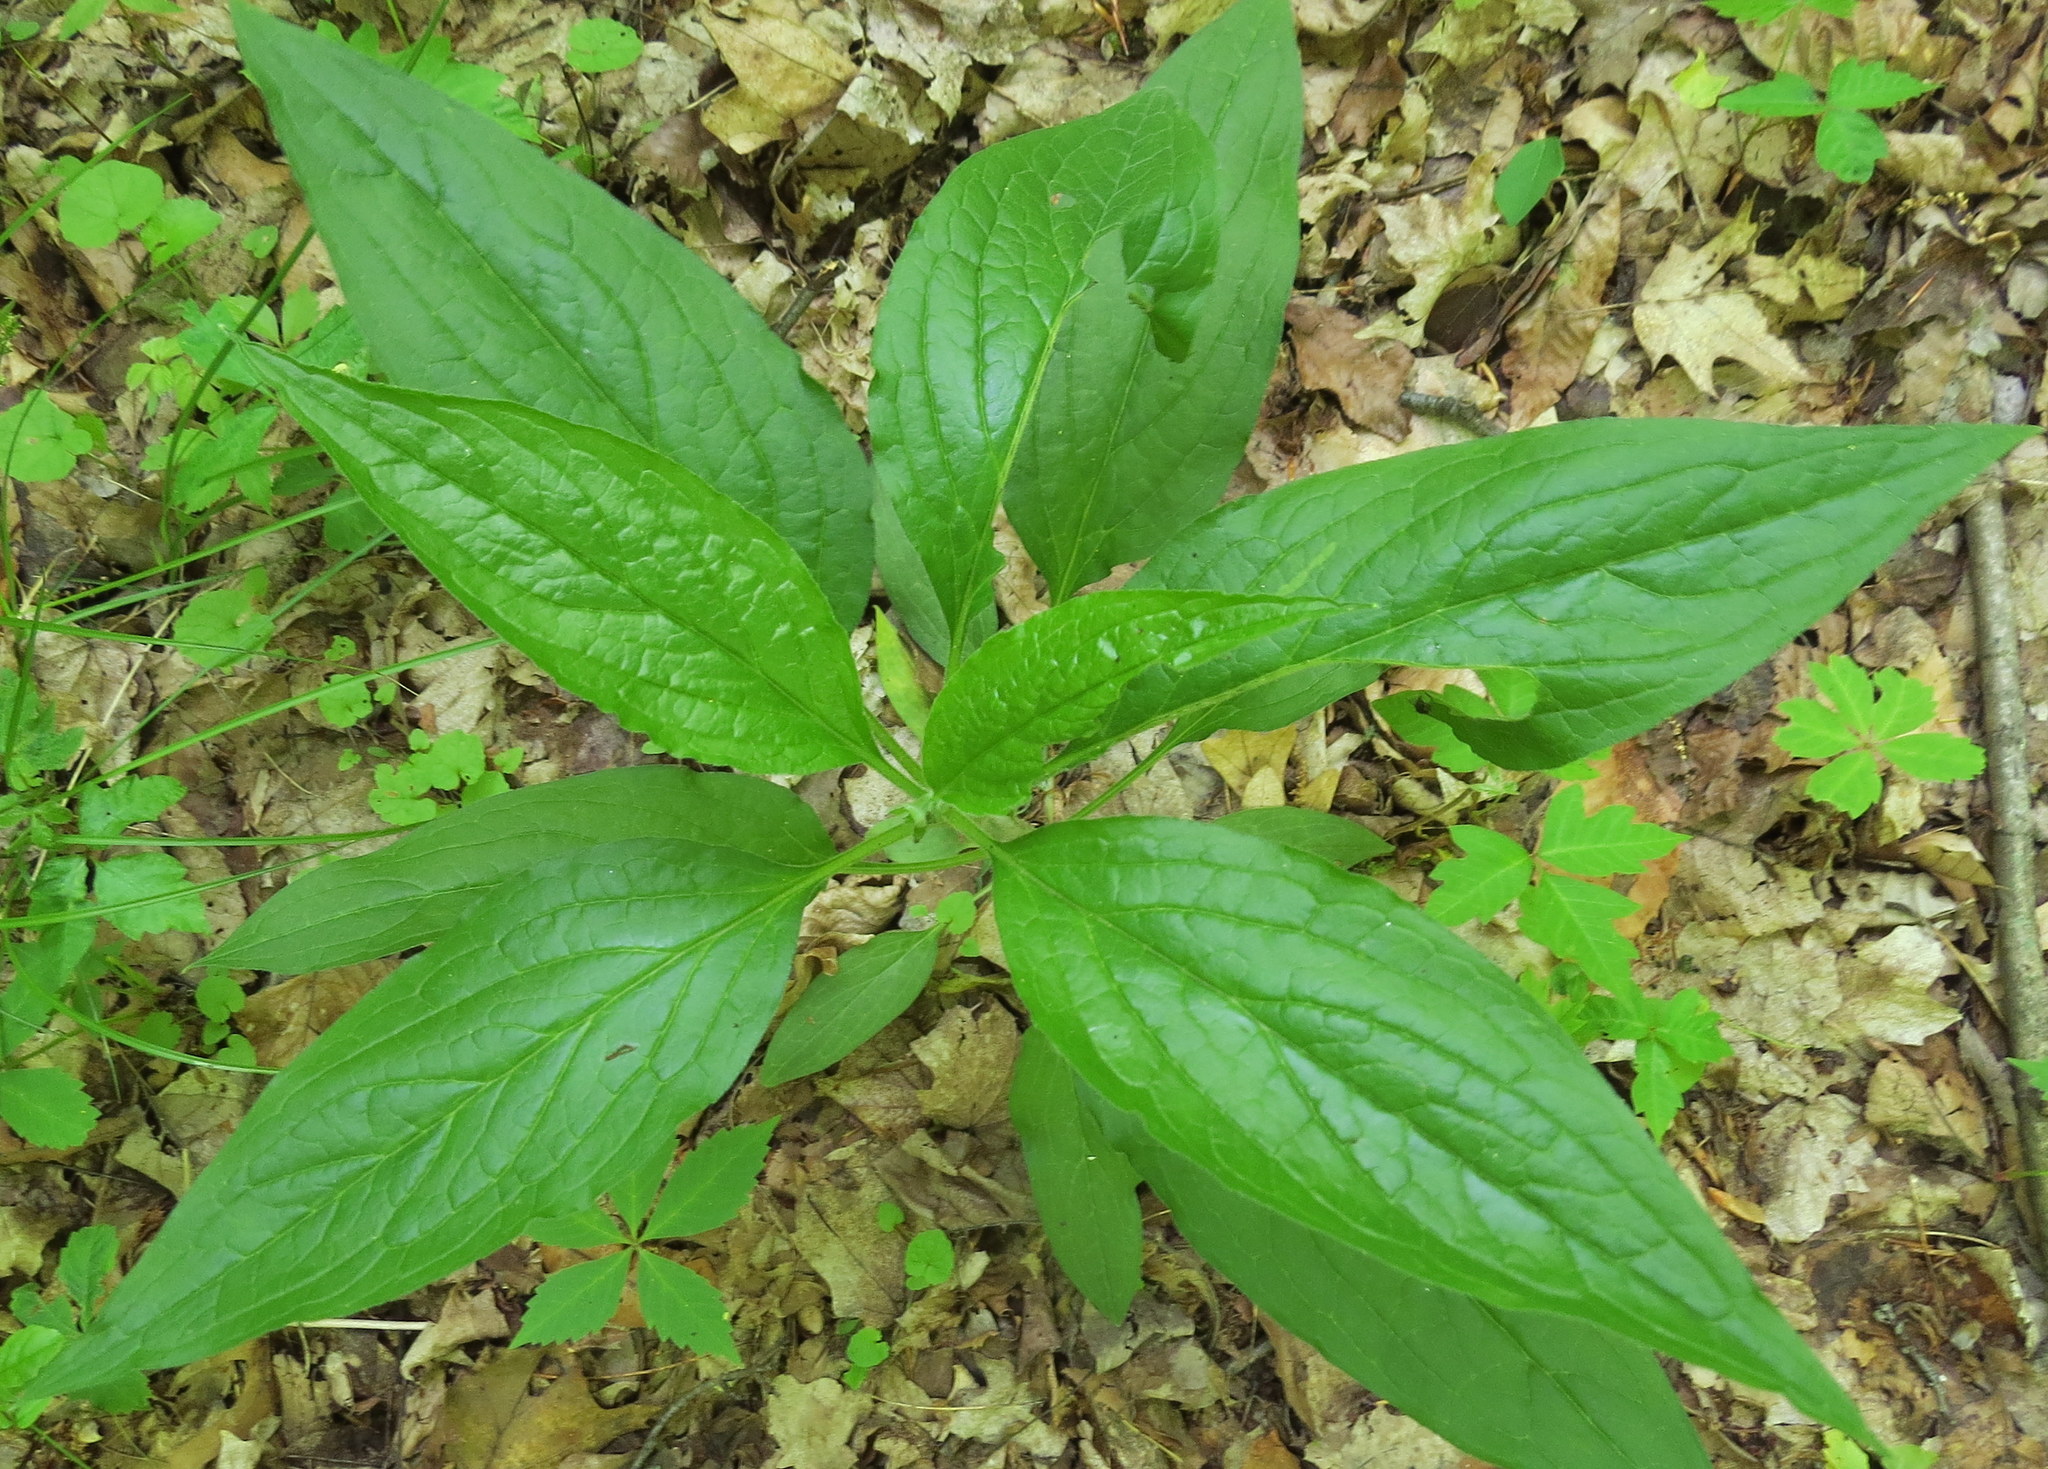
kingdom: Plantae
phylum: Tracheophyta
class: Magnoliopsida
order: Boraginales
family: Boraginaceae
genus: Hackelia
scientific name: Hackelia virginiana
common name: Beggar's-lice
